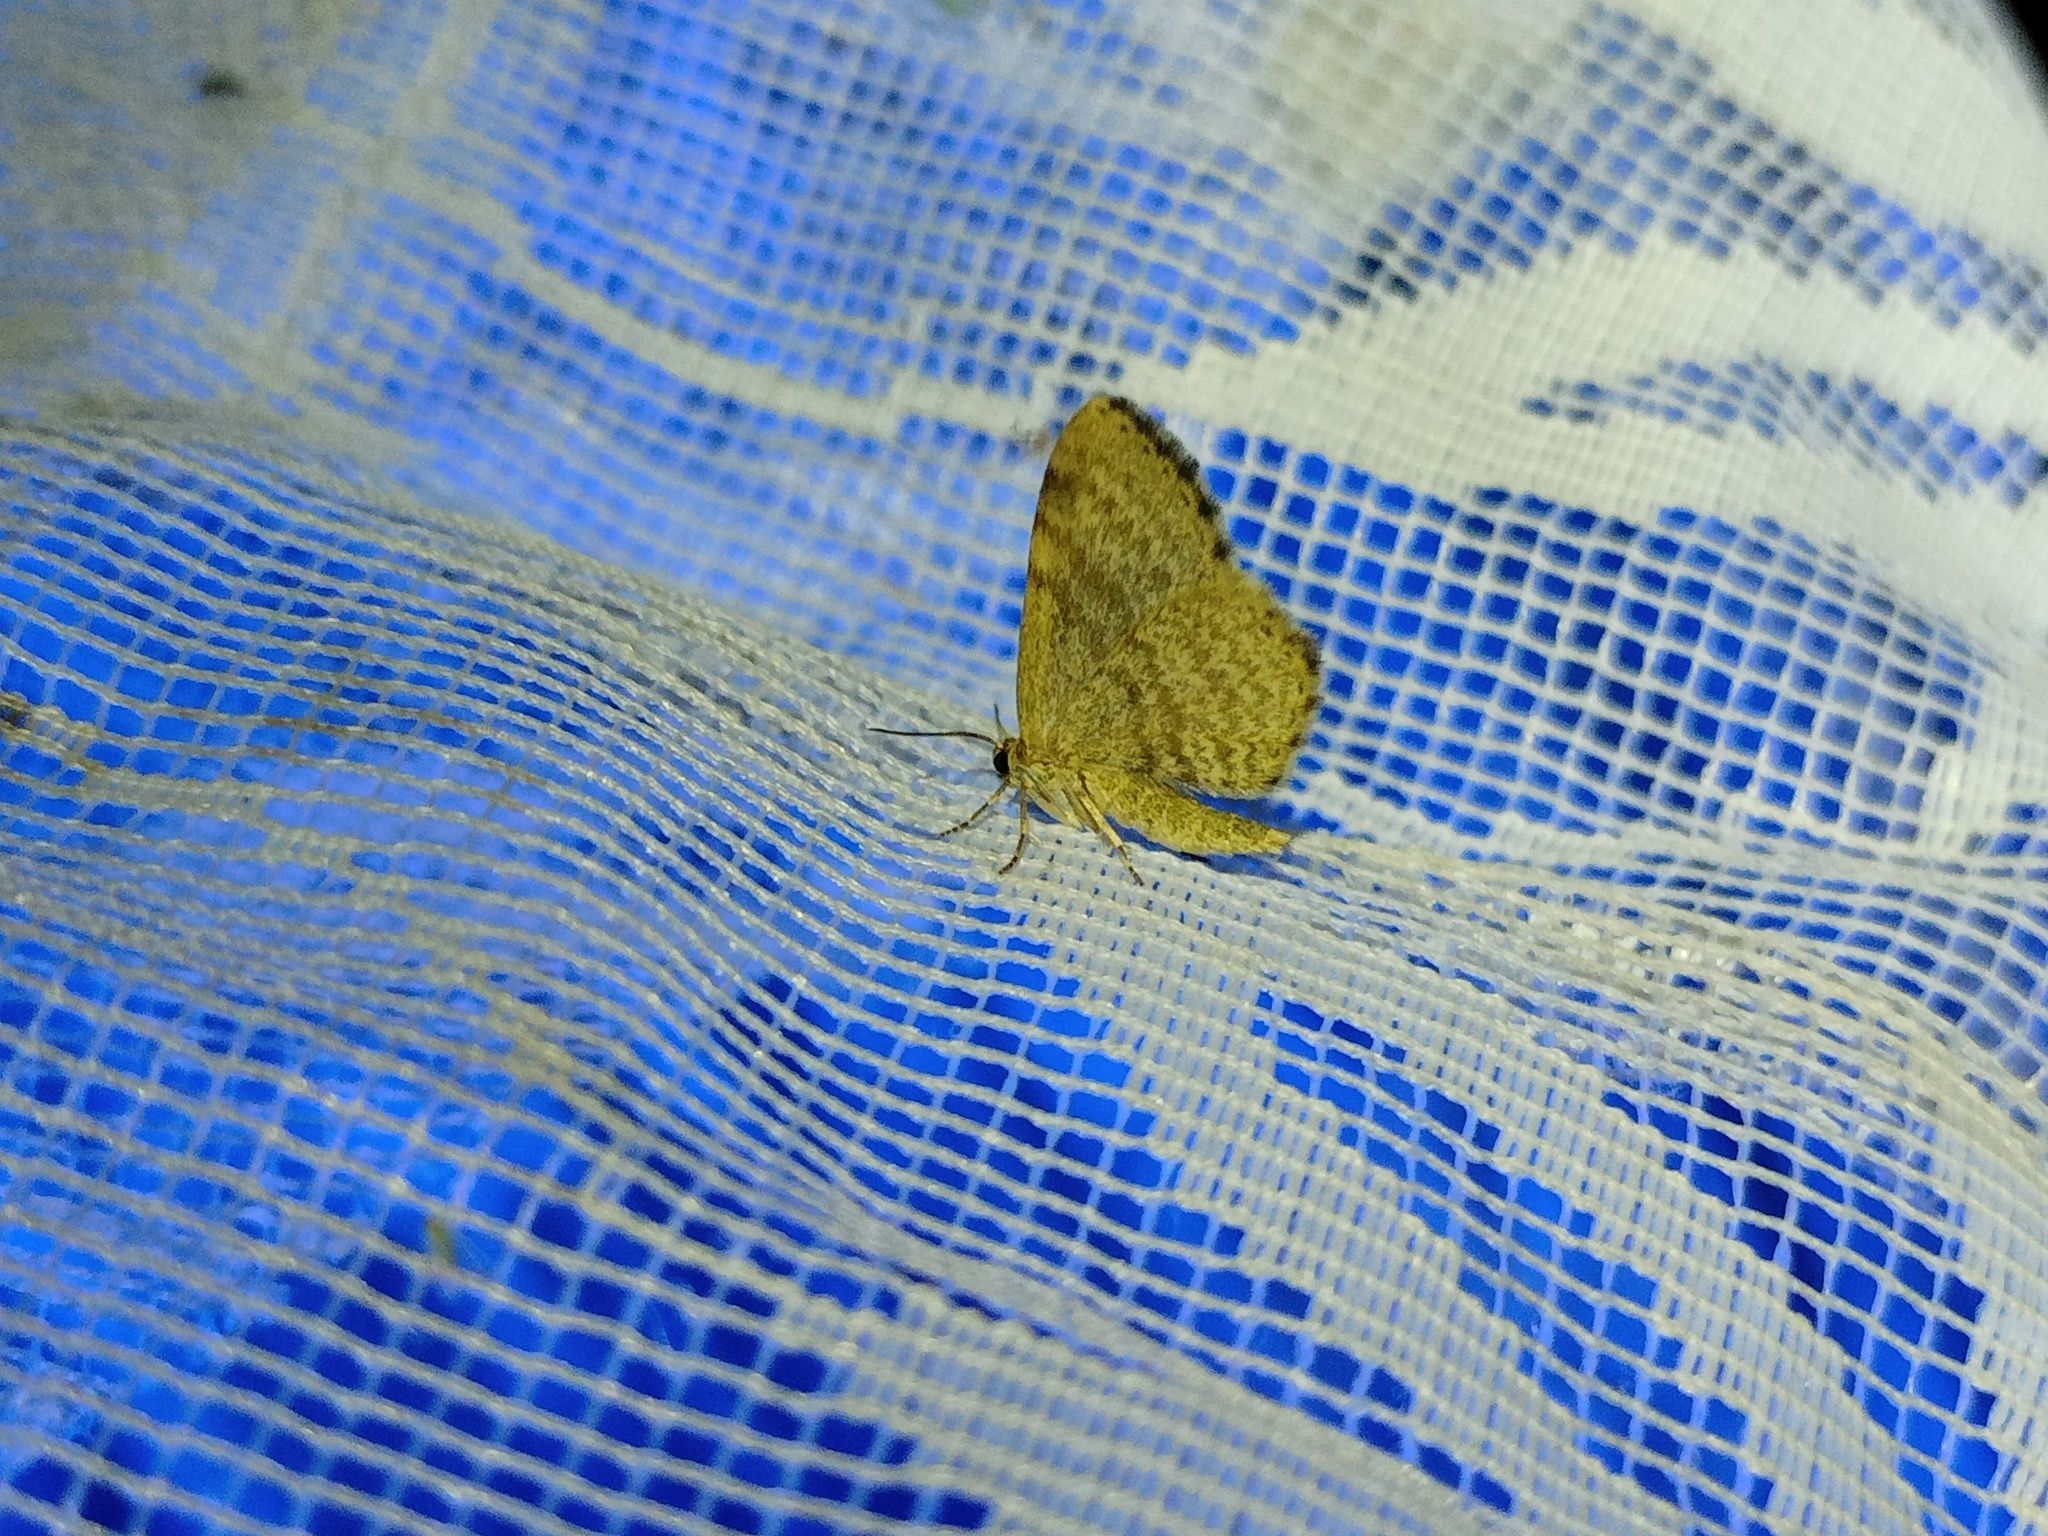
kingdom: Animalia
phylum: Arthropoda
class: Insecta
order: Lepidoptera
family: Geometridae
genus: Euchoeca
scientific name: Euchoeca nebulata
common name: Dingy shell
